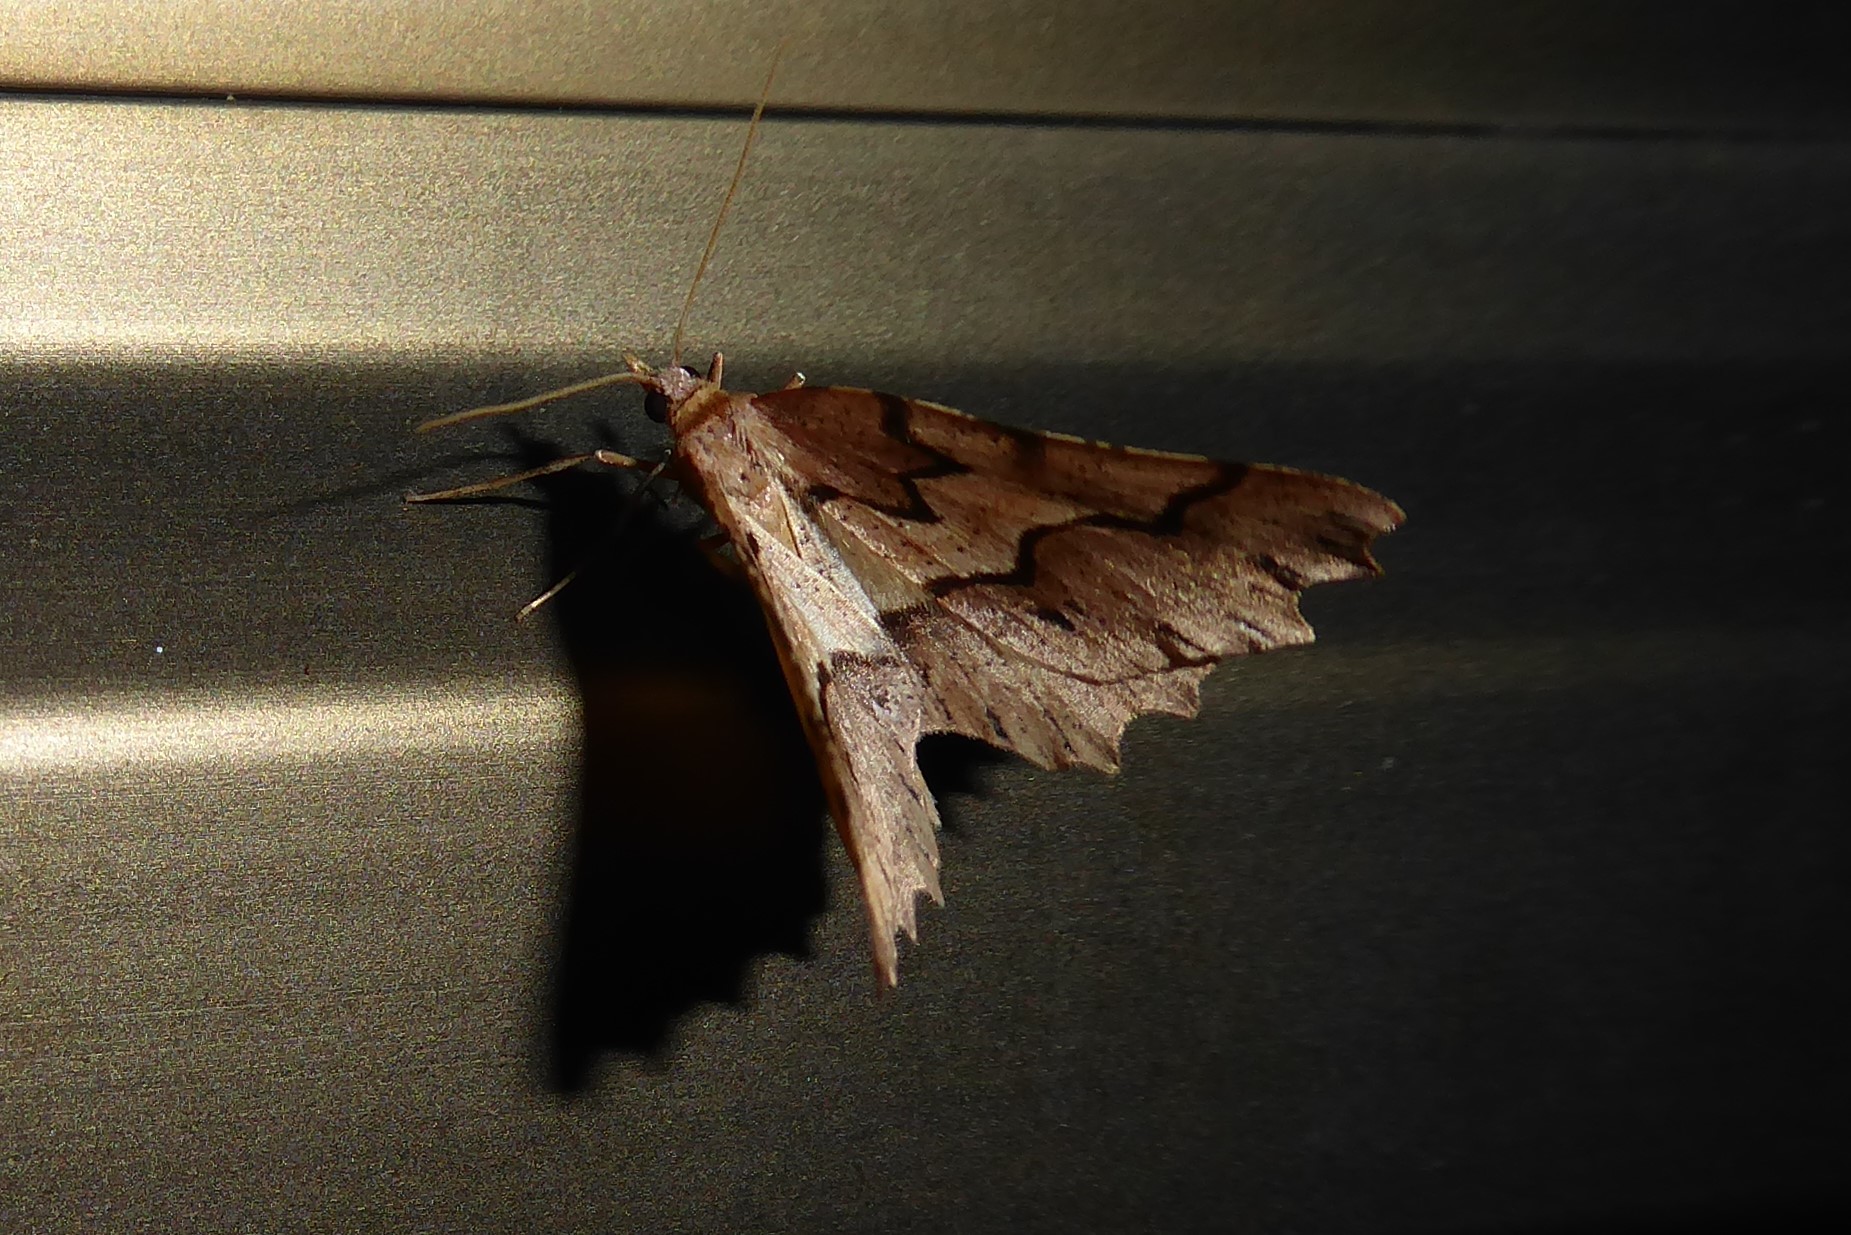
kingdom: Animalia
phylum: Arthropoda
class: Insecta
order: Lepidoptera
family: Geometridae
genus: Ischalis
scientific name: Ischalis fortinata
